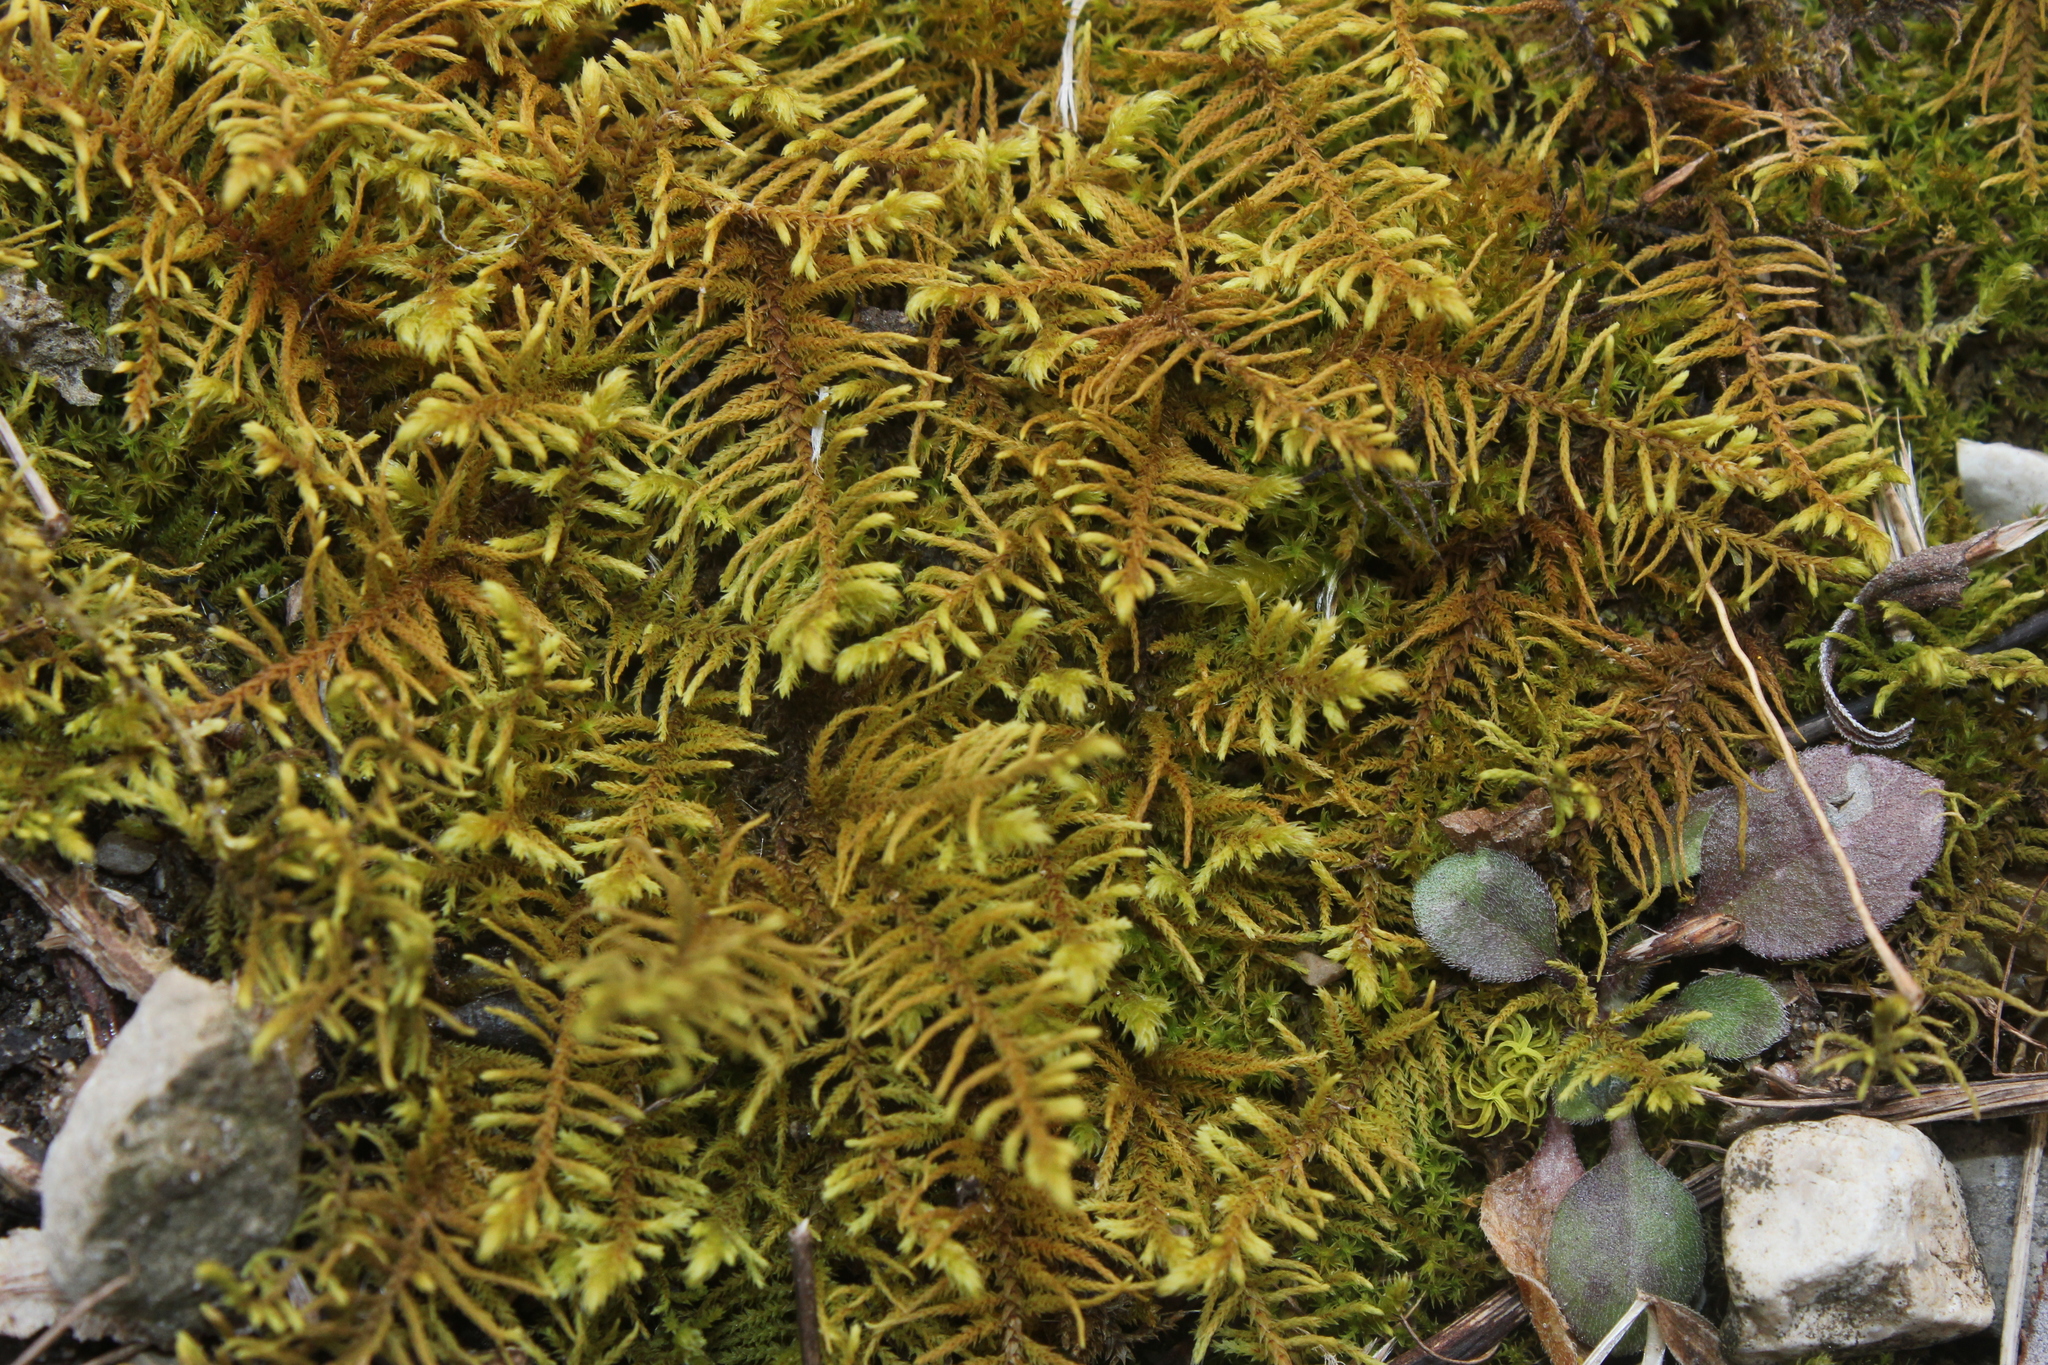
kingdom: Plantae
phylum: Bryophyta
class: Bryopsida
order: Hypnales
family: Thuidiaceae
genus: Abietinella
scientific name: Abietinella abietina
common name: Wiry fern moss
